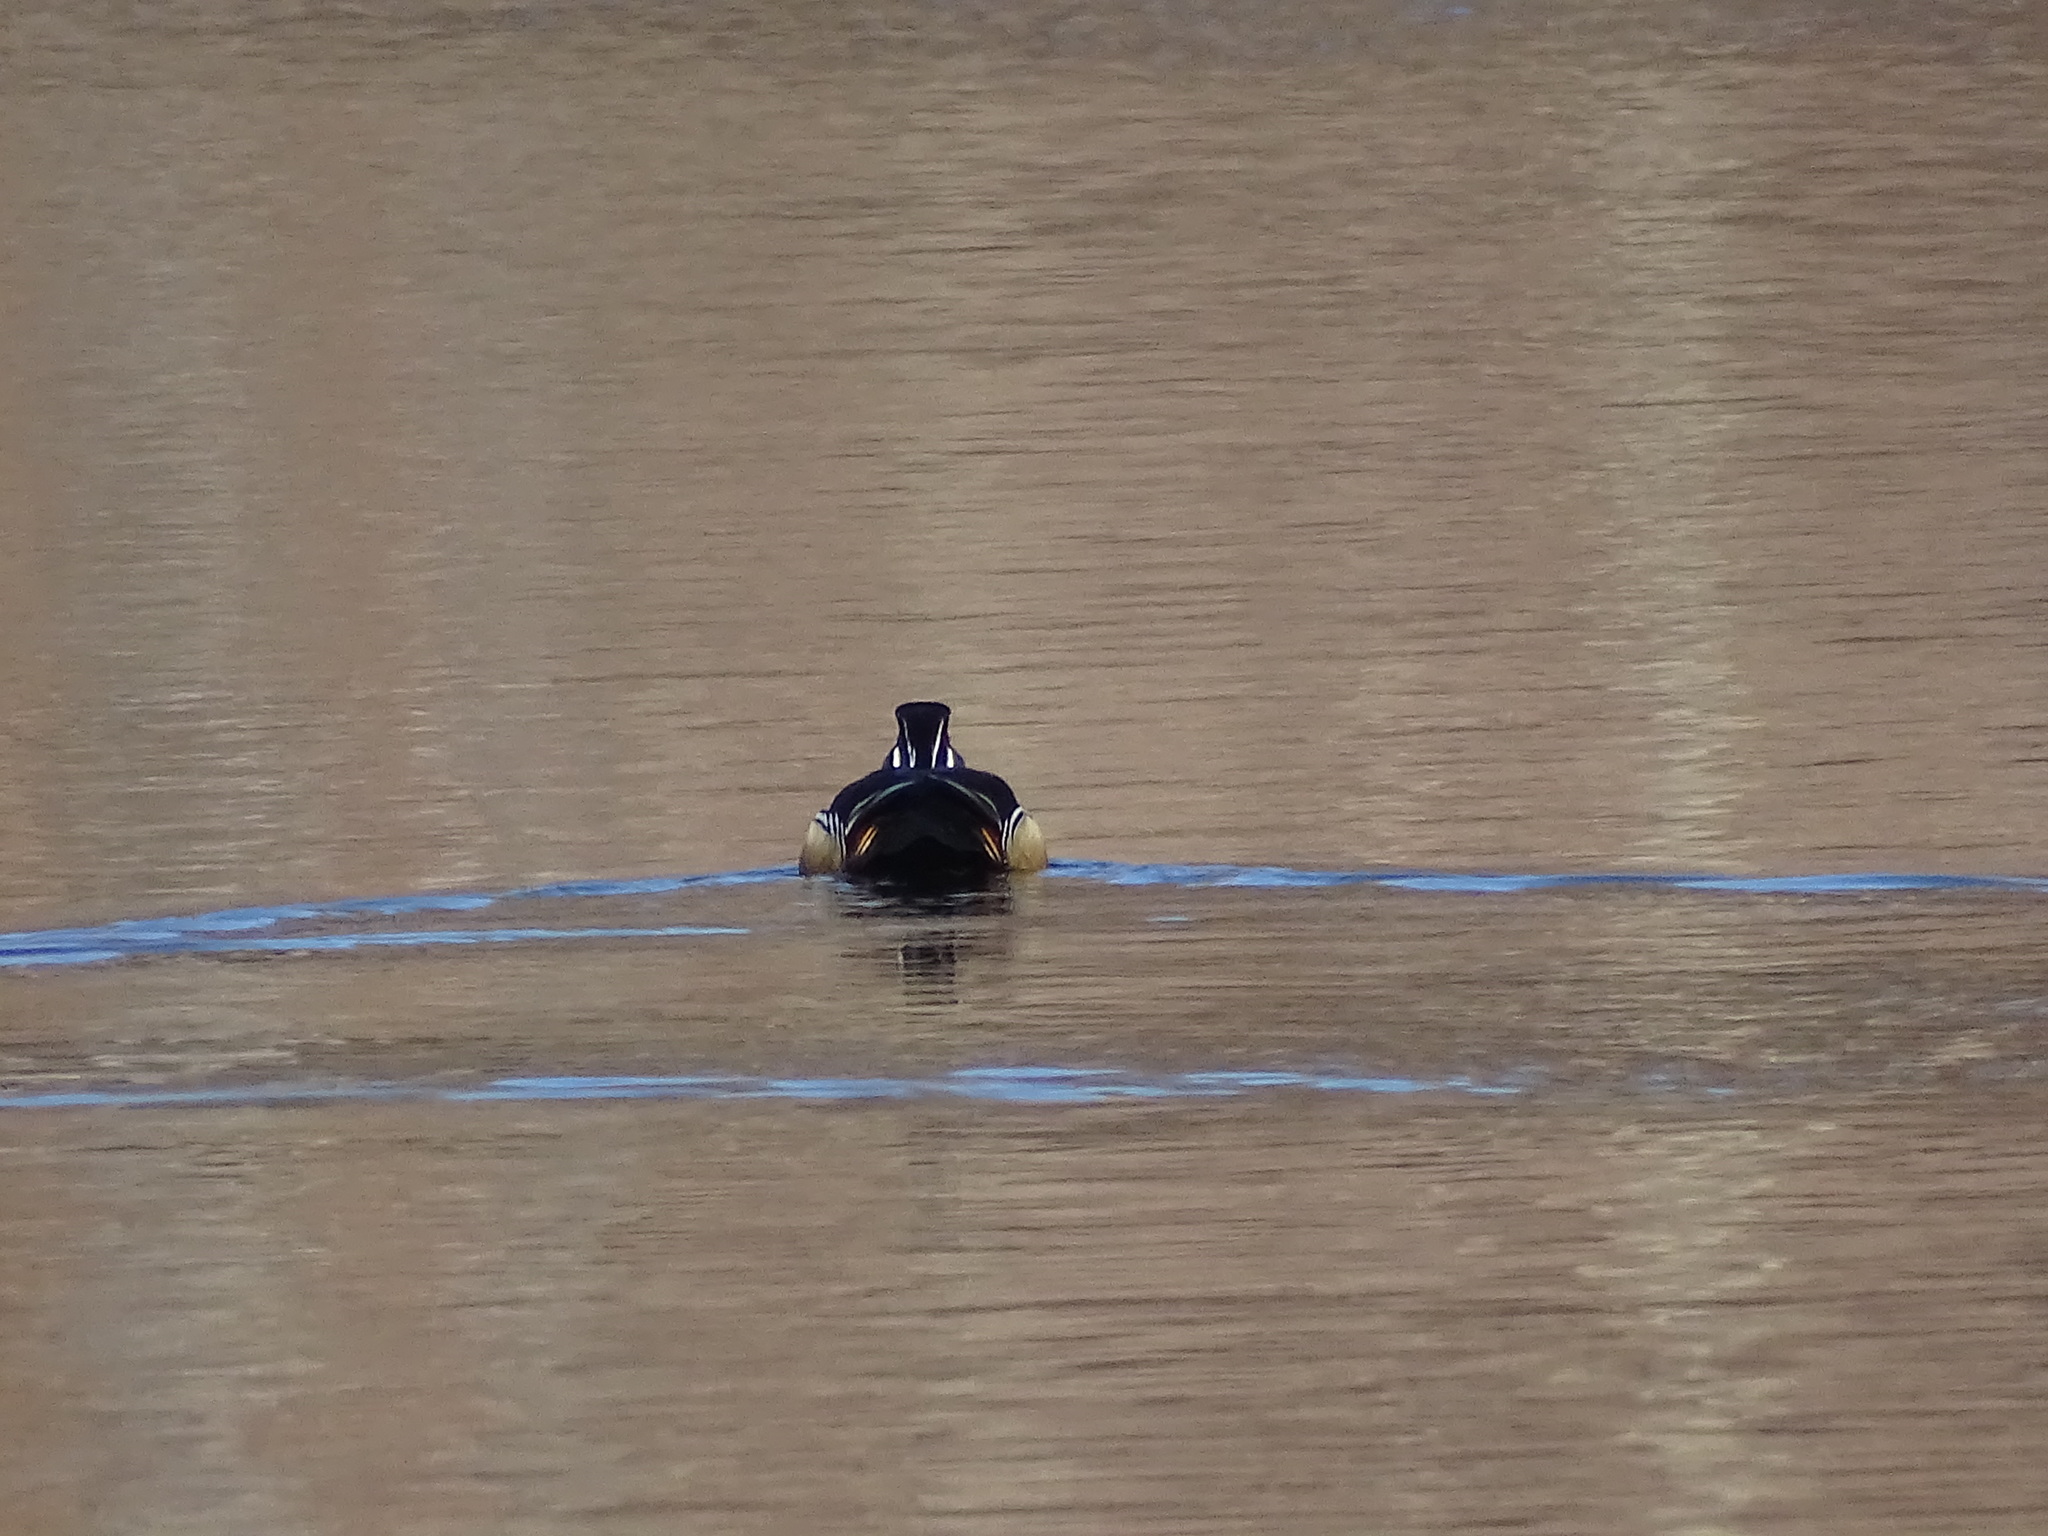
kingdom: Animalia
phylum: Chordata
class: Aves
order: Anseriformes
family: Anatidae
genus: Aix
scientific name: Aix sponsa
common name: Wood duck
